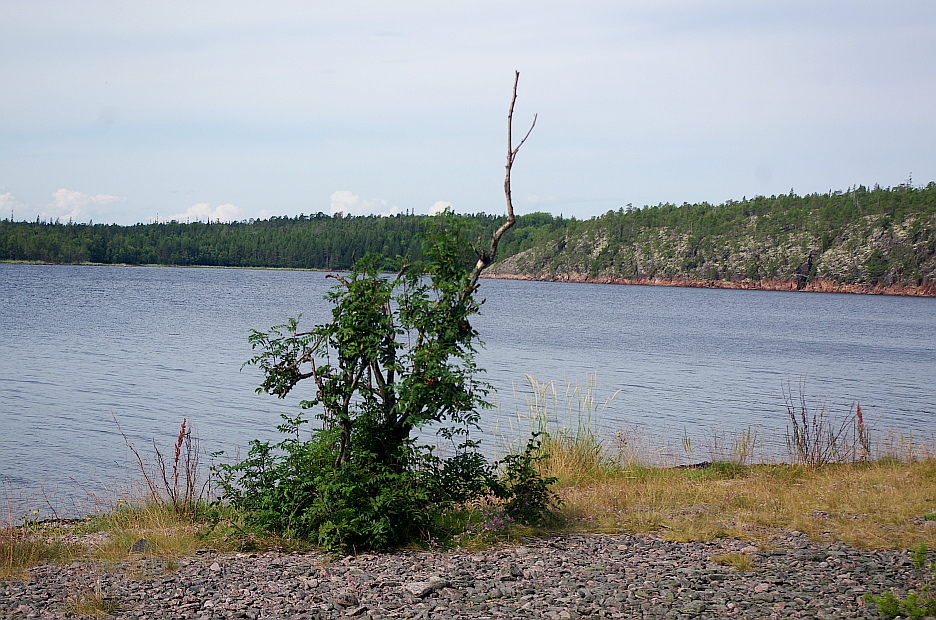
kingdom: Plantae
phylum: Tracheophyta
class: Magnoliopsida
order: Rosales
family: Rosaceae
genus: Sorbus
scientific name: Sorbus aucuparia
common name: Rowan
